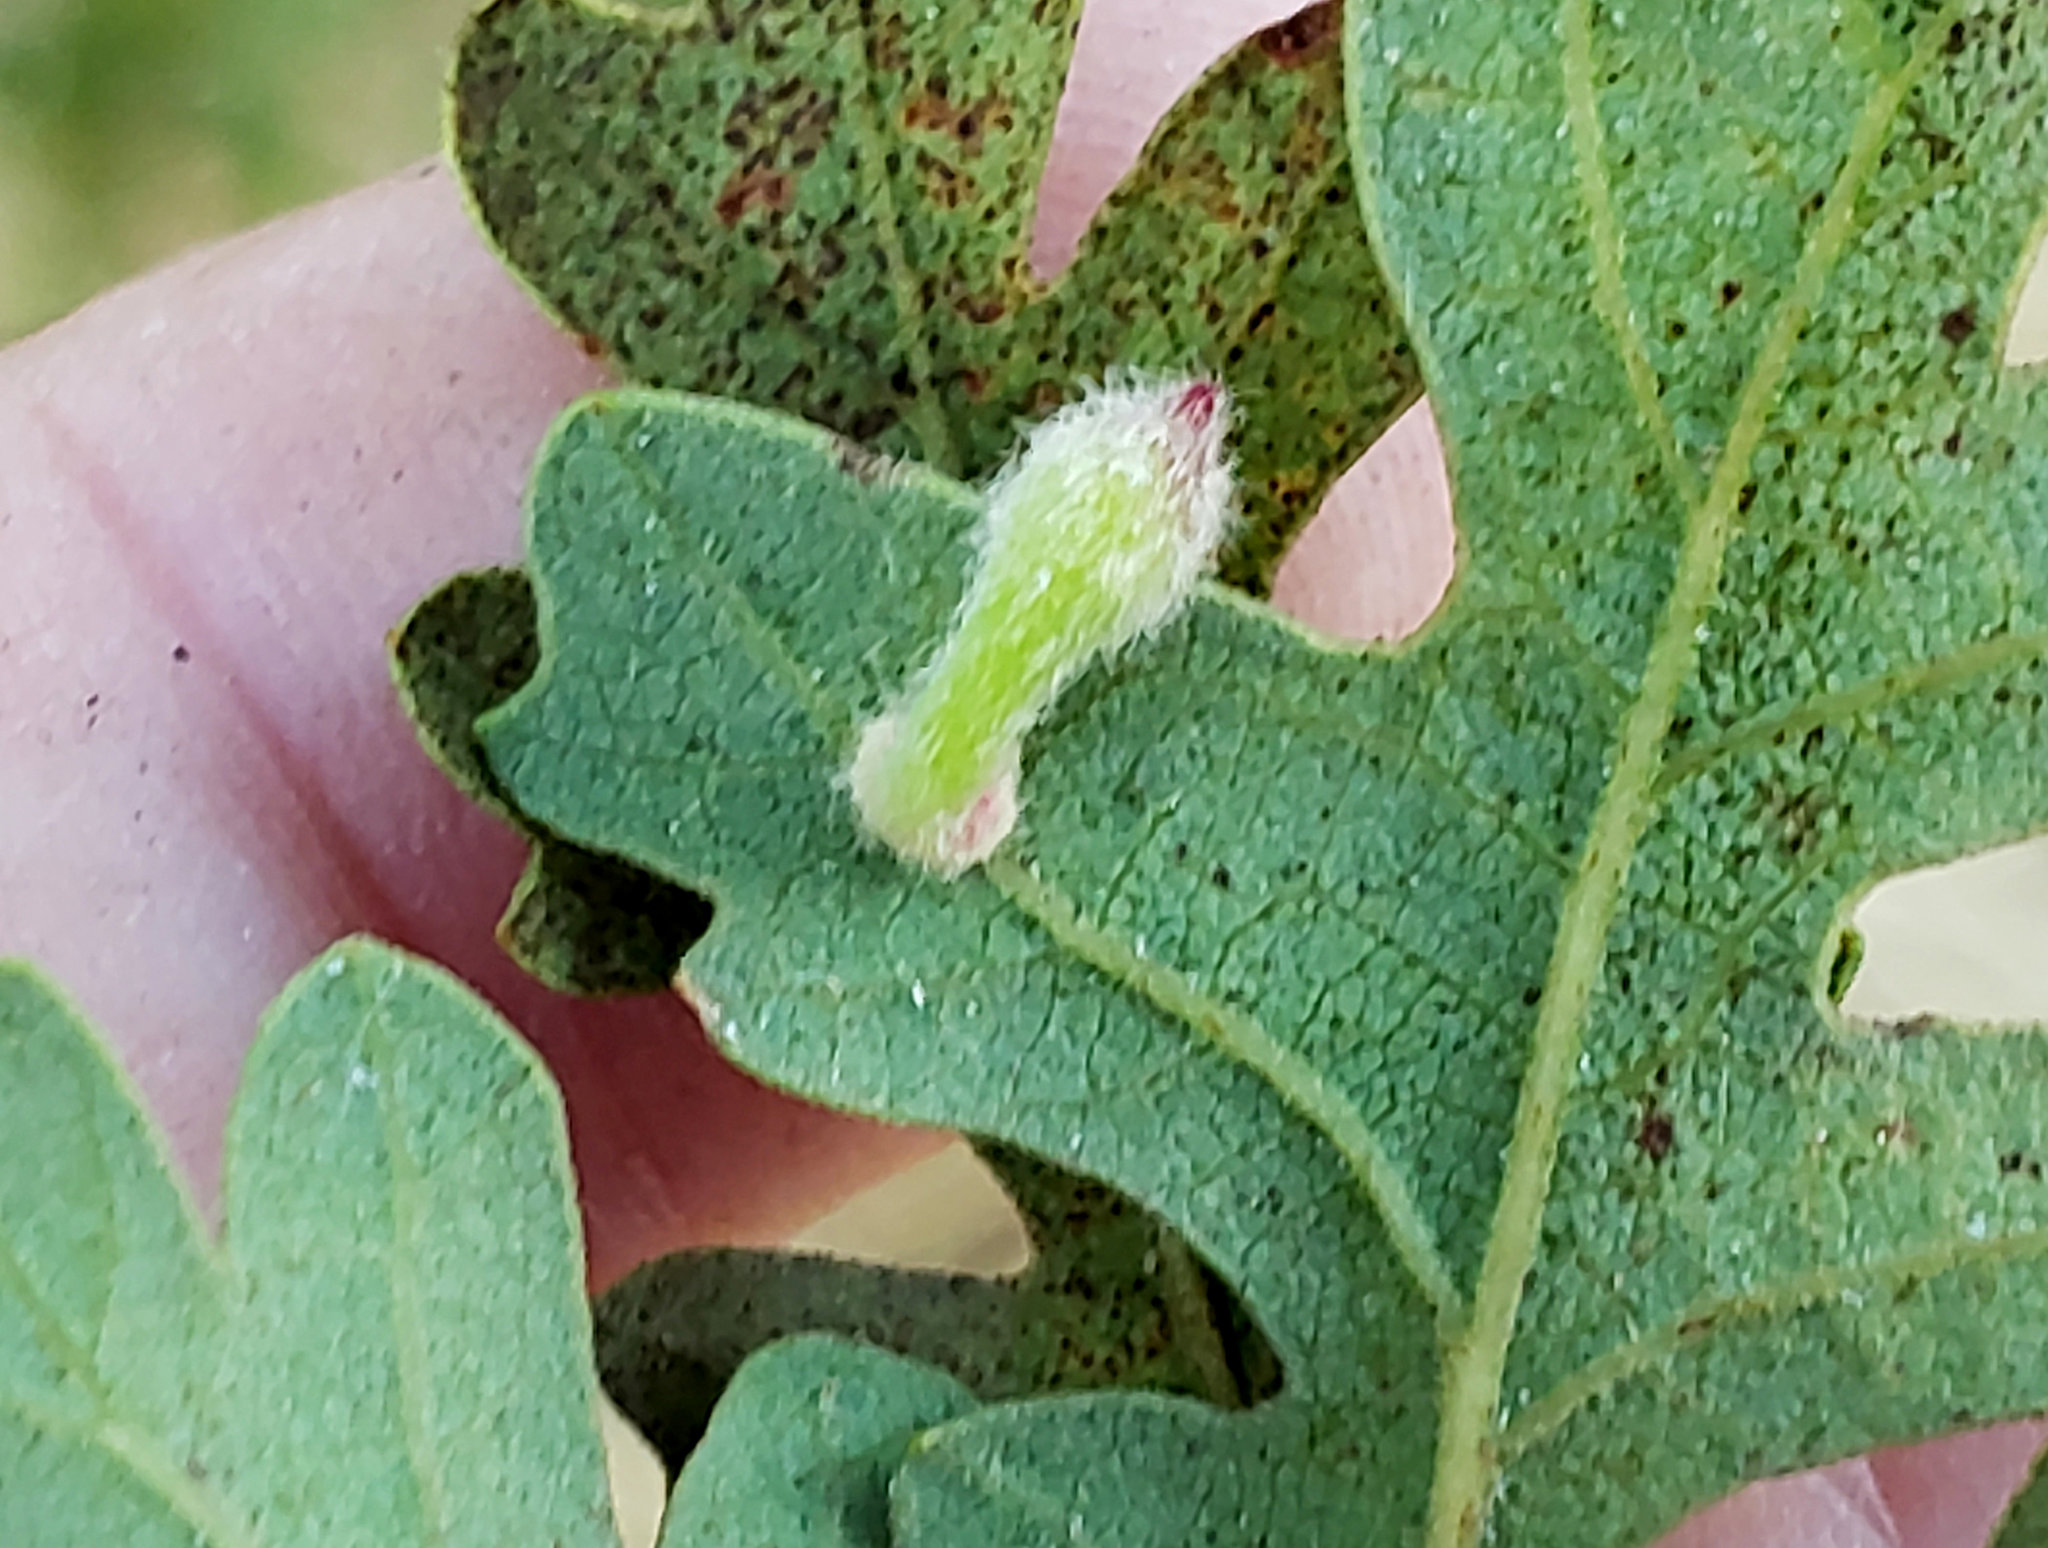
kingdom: Animalia
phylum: Arthropoda
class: Insecta
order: Hymenoptera
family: Cynipidae
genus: Atrusca
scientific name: Atrusca
